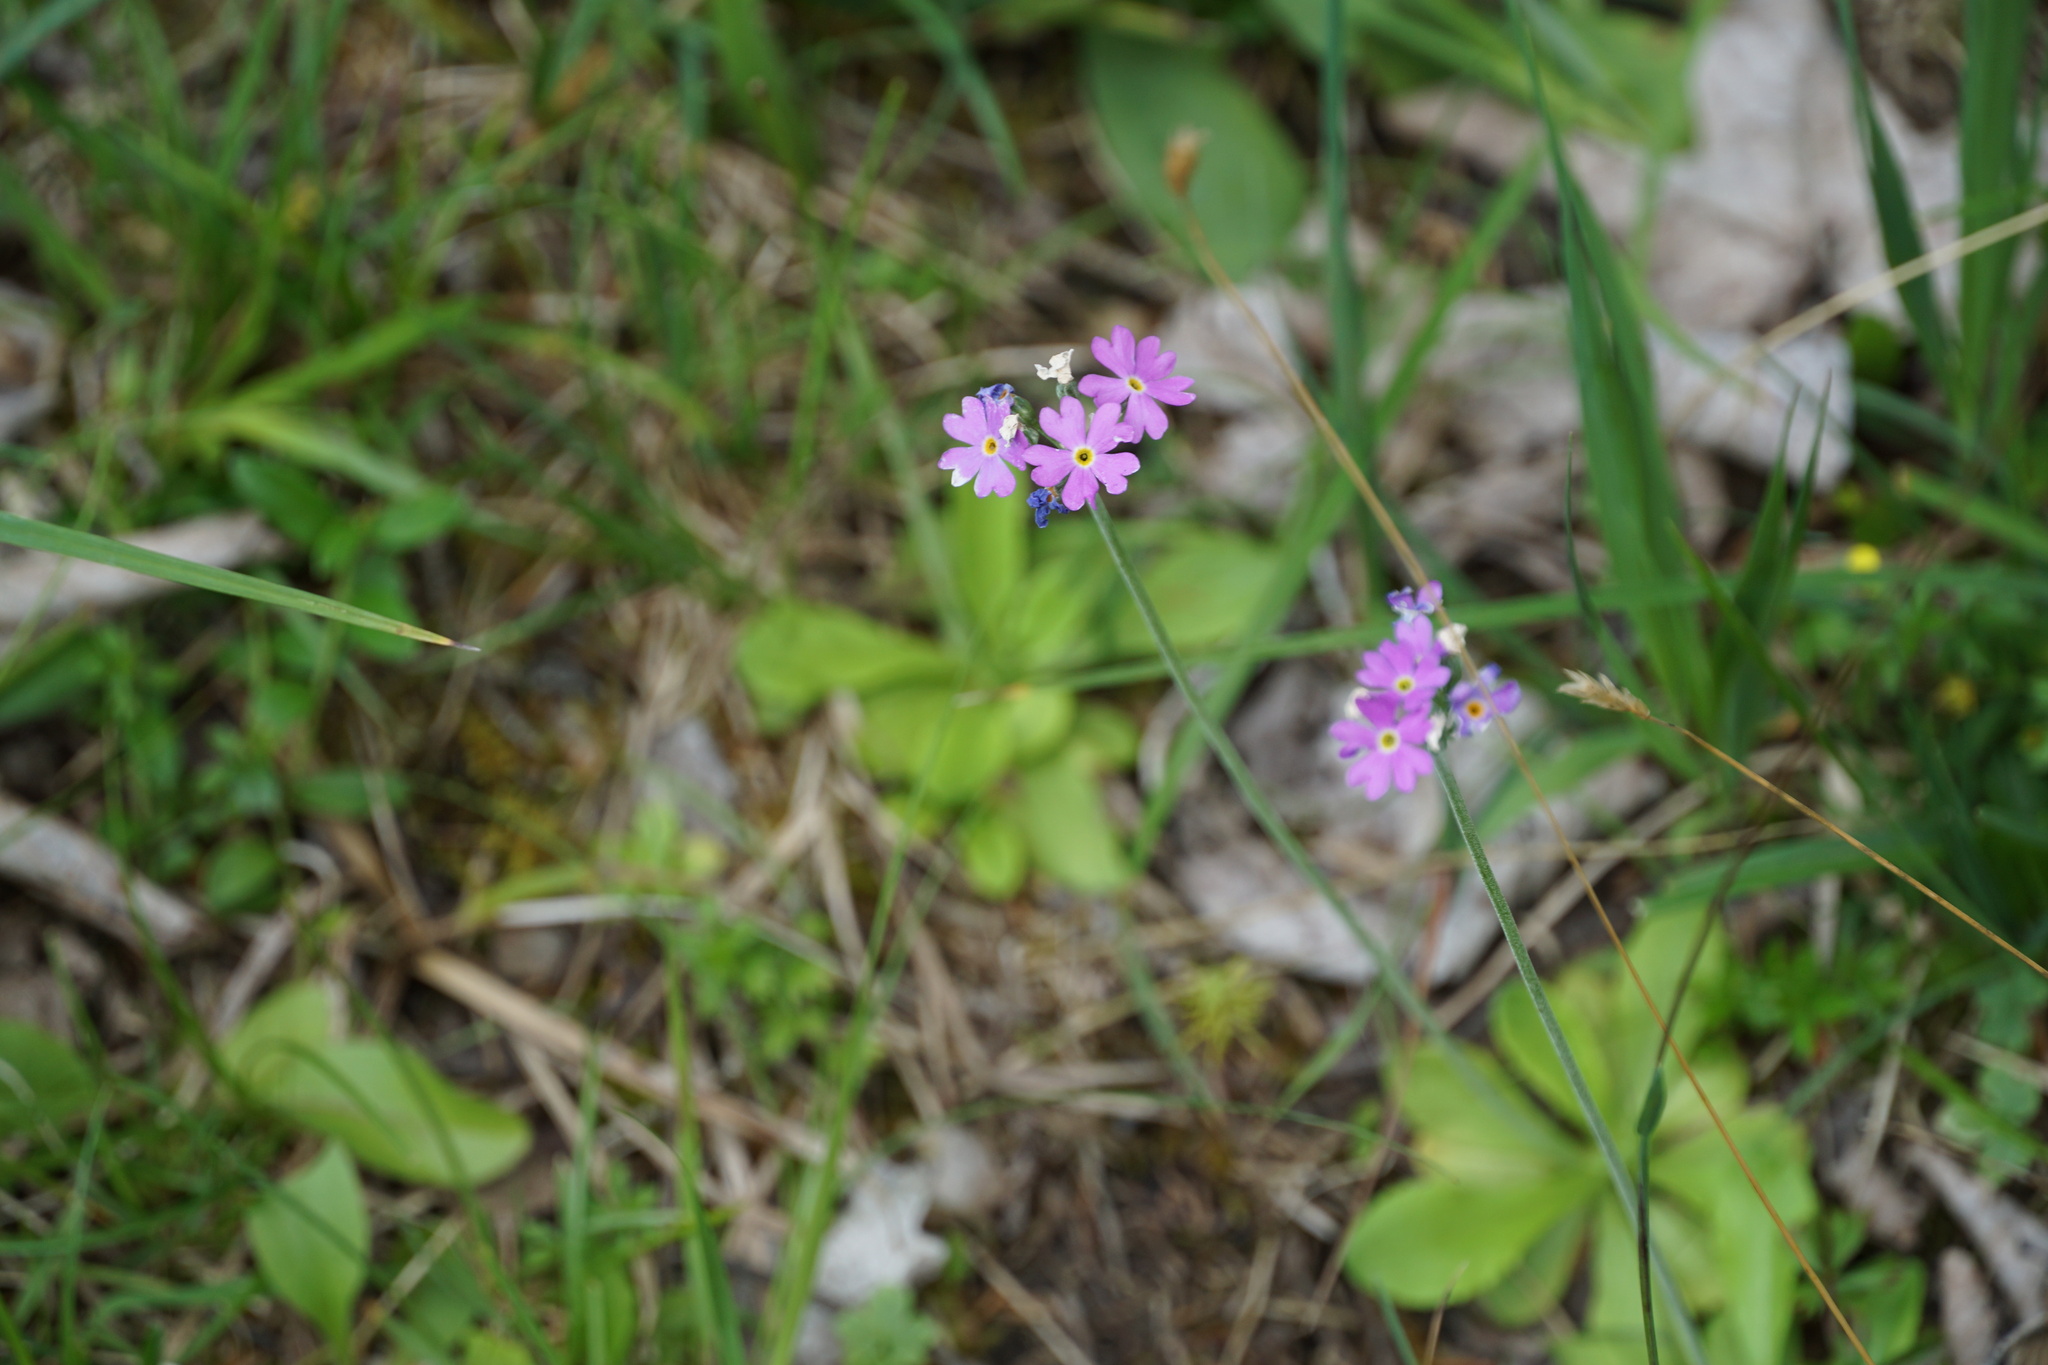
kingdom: Plantae
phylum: Tracheophyta
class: Magnoliopsida
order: Ericales
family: Primulaceae
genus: Primula
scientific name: Primula farinosa
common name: Bird's-eye primrose
